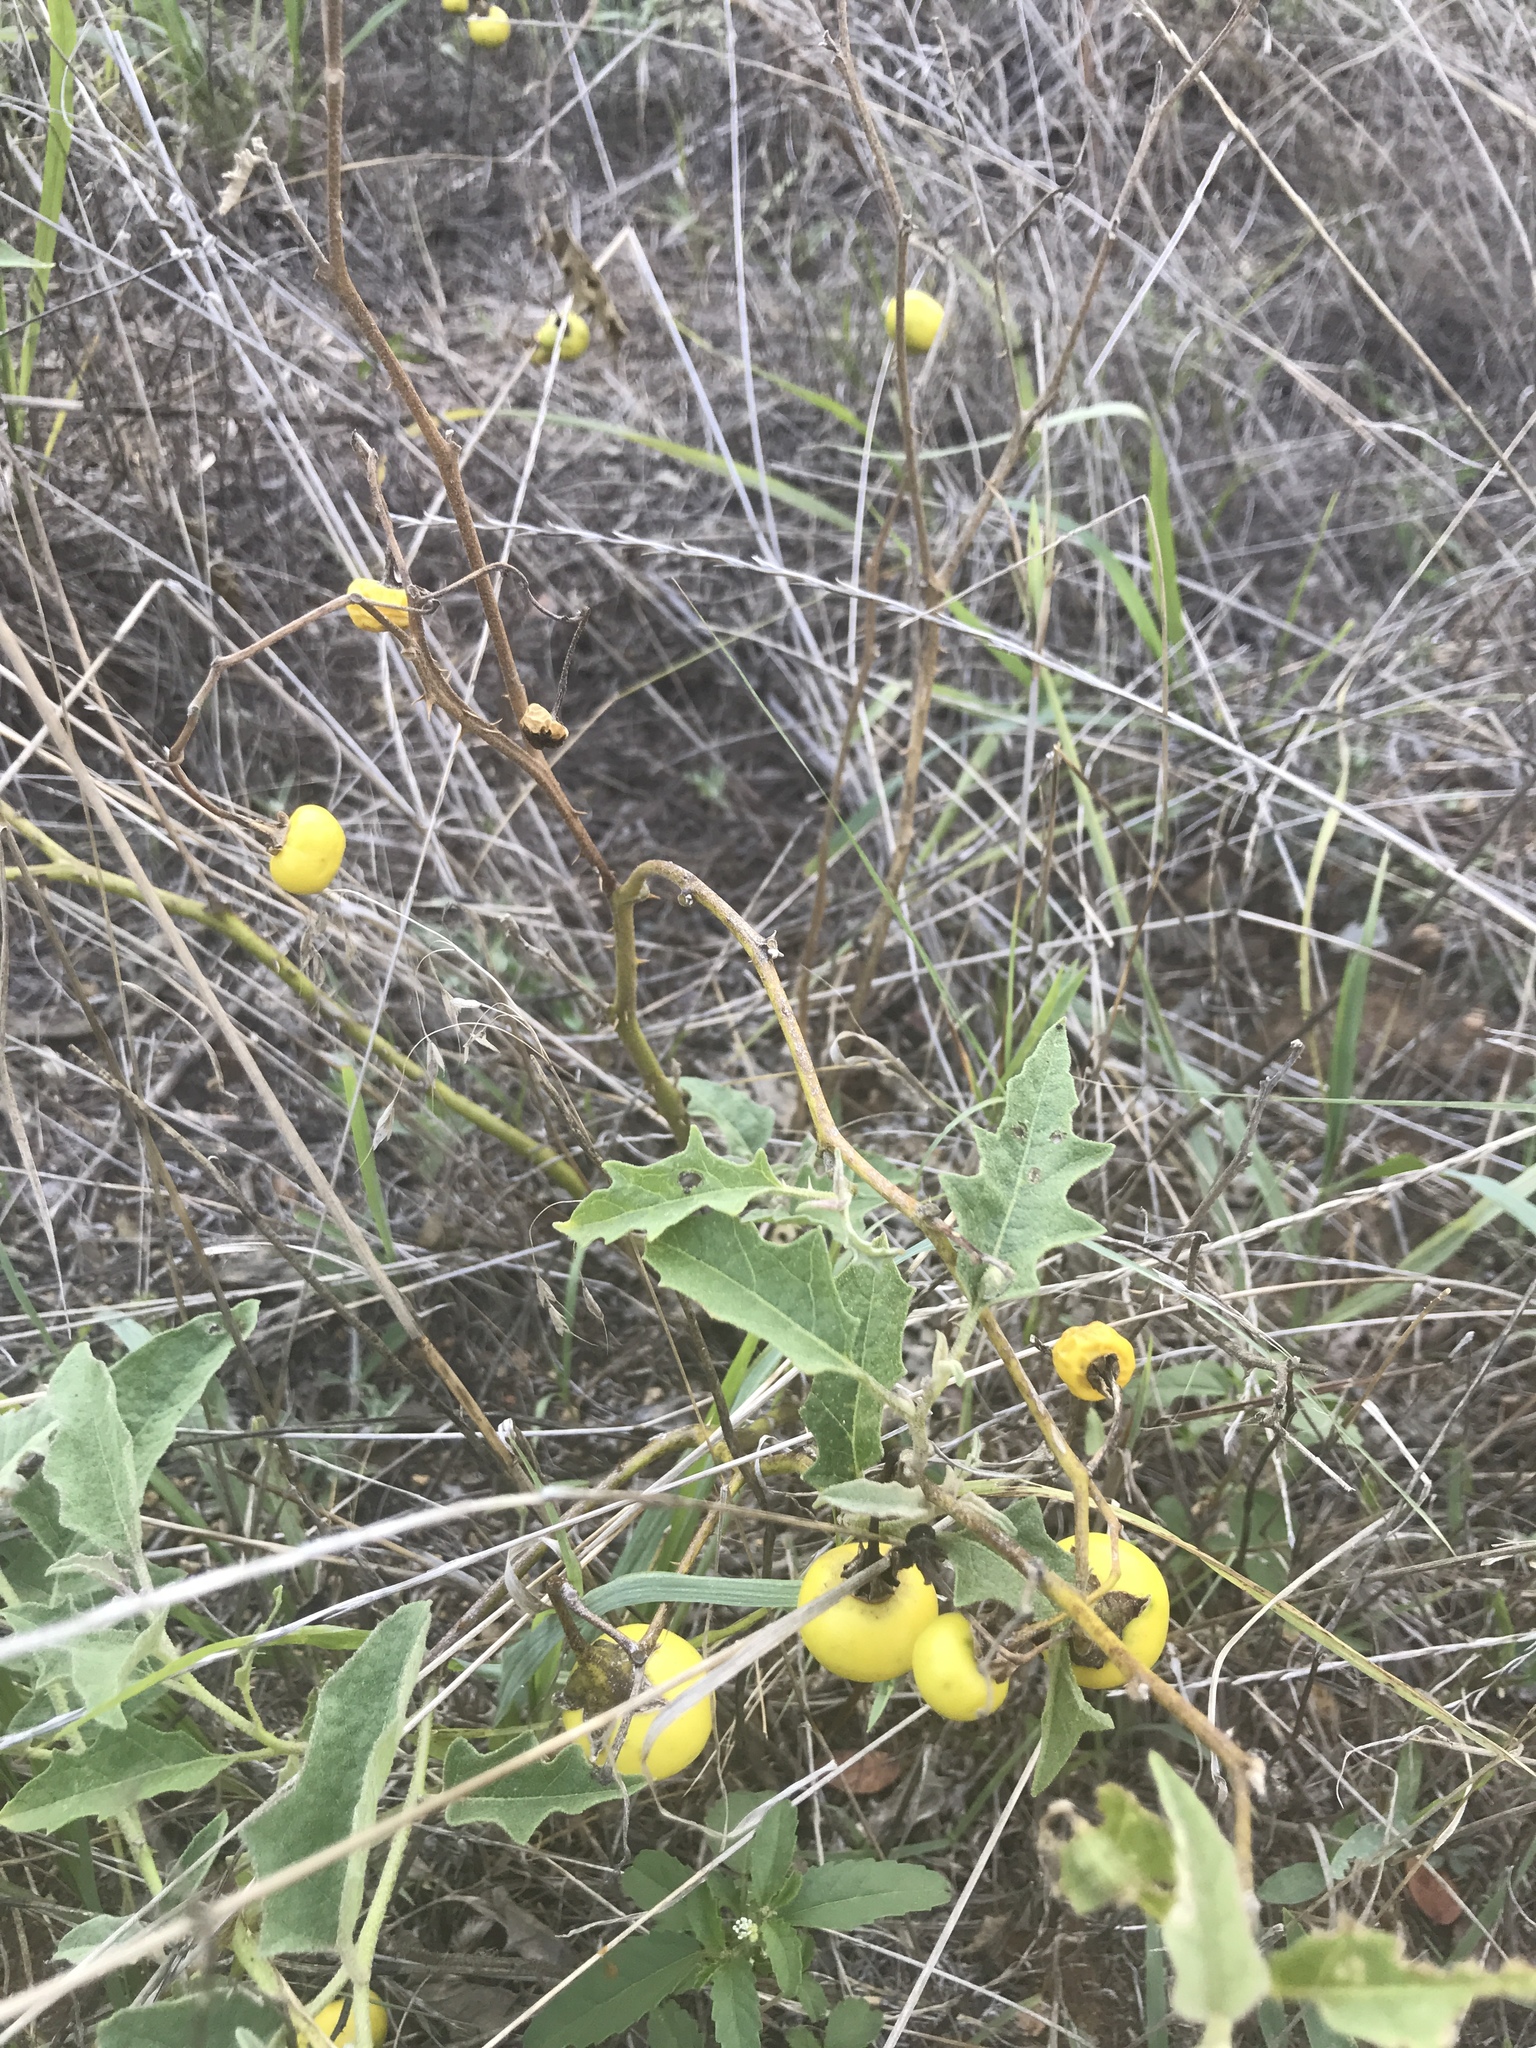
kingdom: Plantae
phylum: Tracheophyta
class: Magnoliopsida
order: Solanales
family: Solanaceae
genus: Solanum
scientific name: Solanum dimidiatum
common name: Carolina horse-nettle
